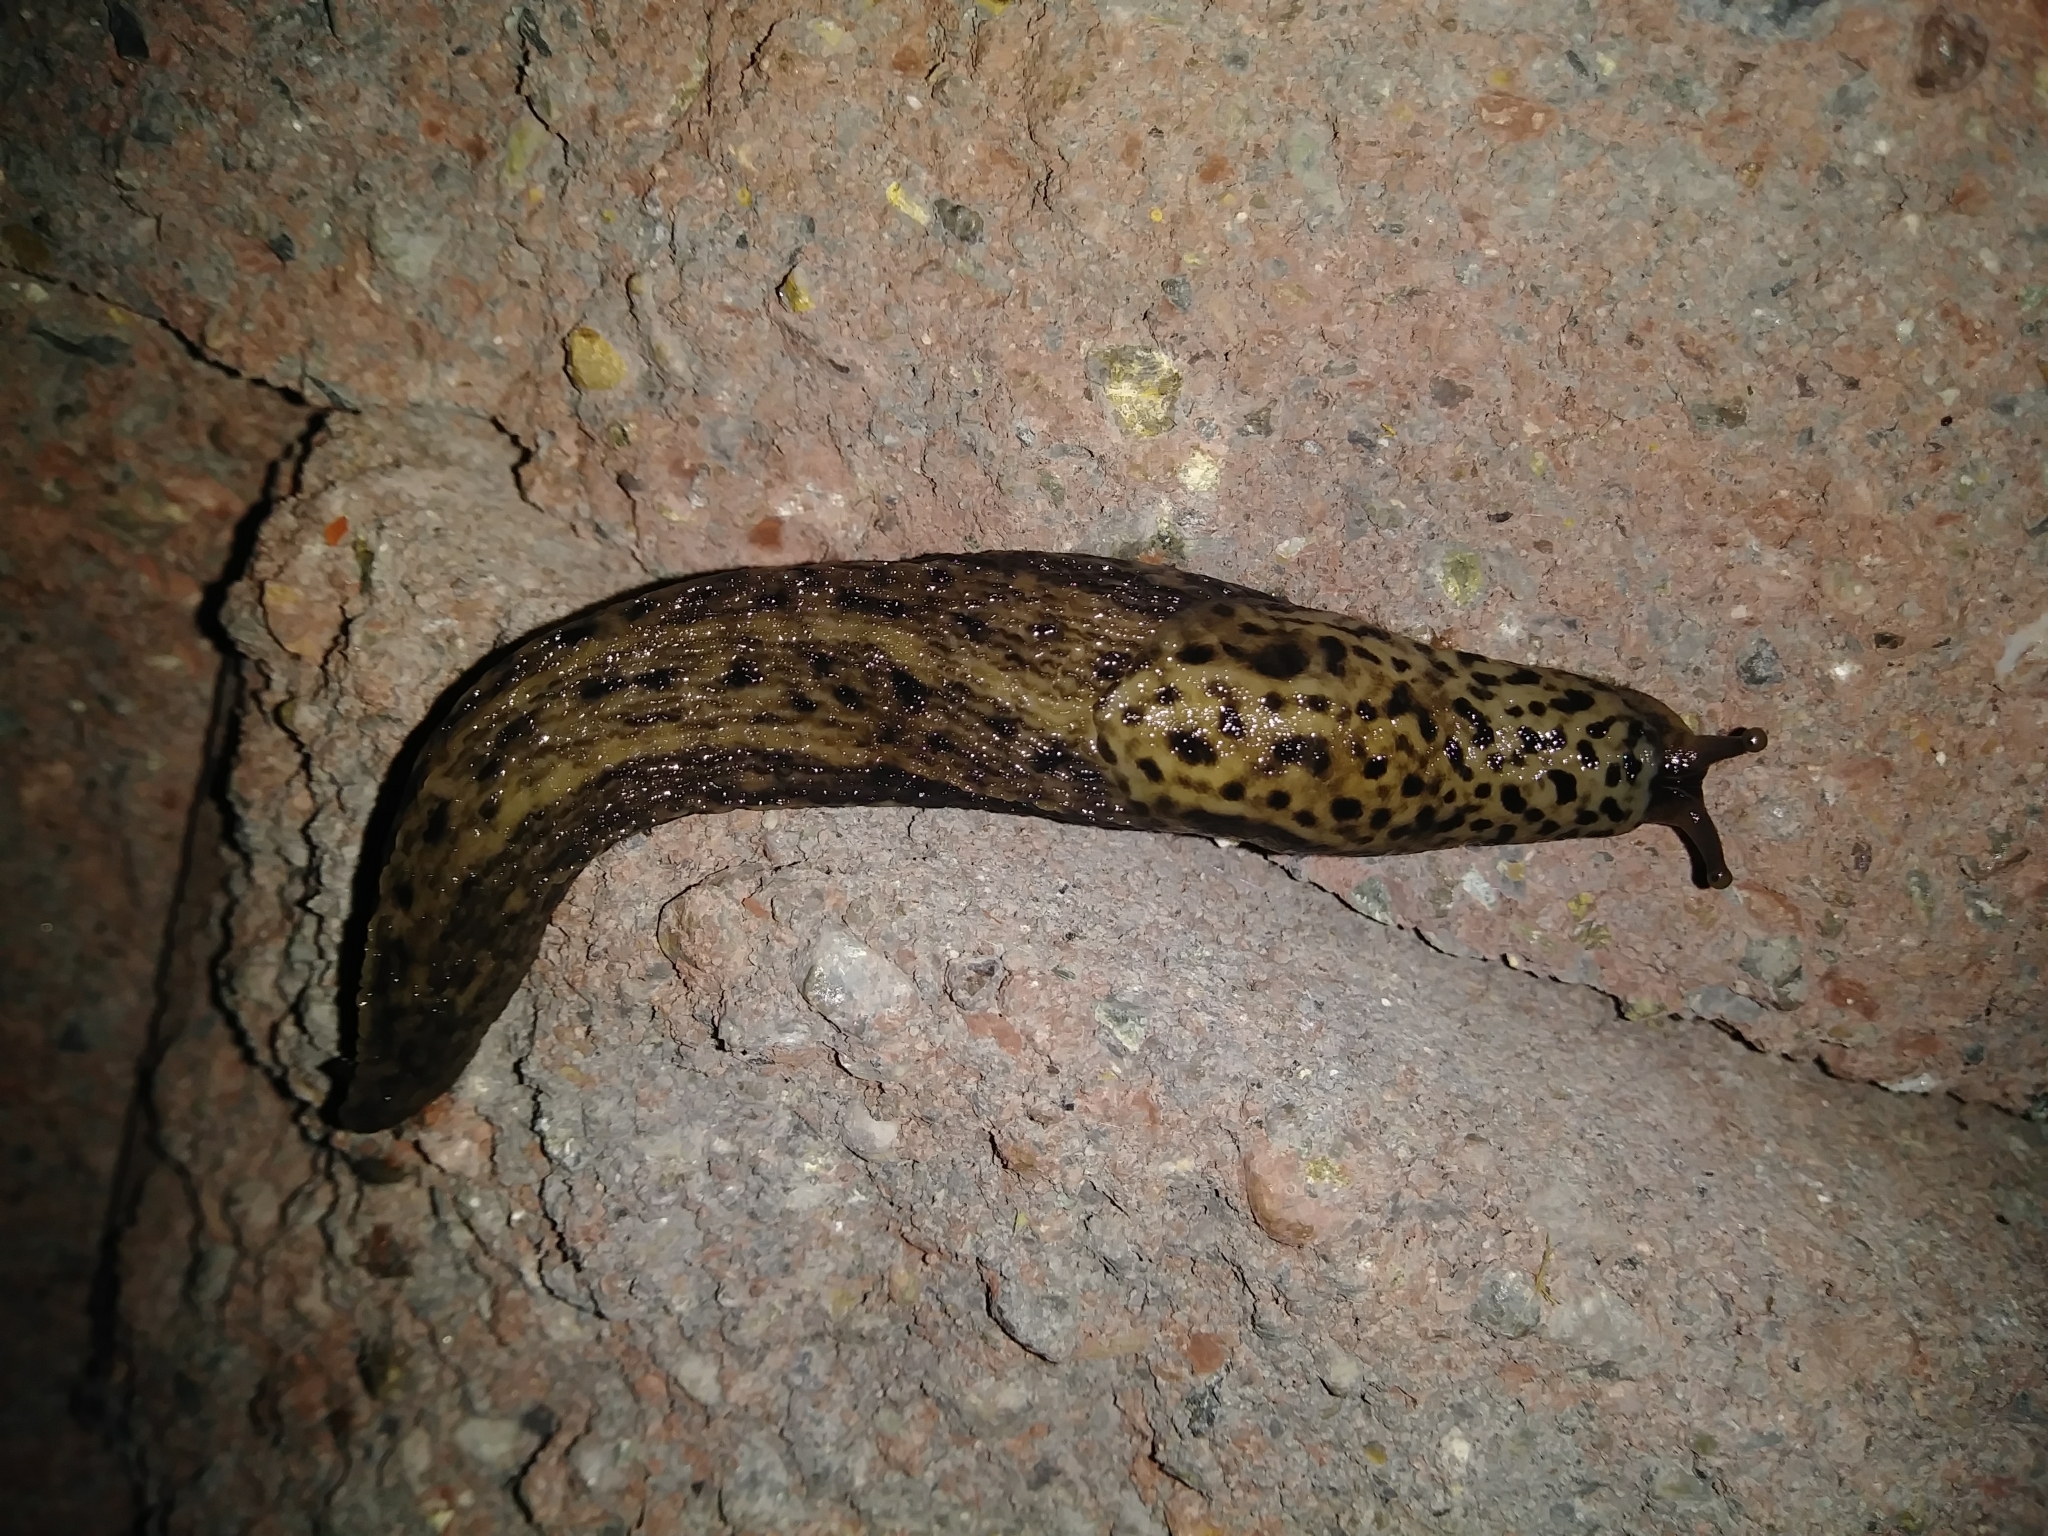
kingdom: Animalia
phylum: Mollusca
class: Gastropoda
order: Stylommatophora
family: Limacidae
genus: Limax
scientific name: Limax maximus
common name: Great grey slug
